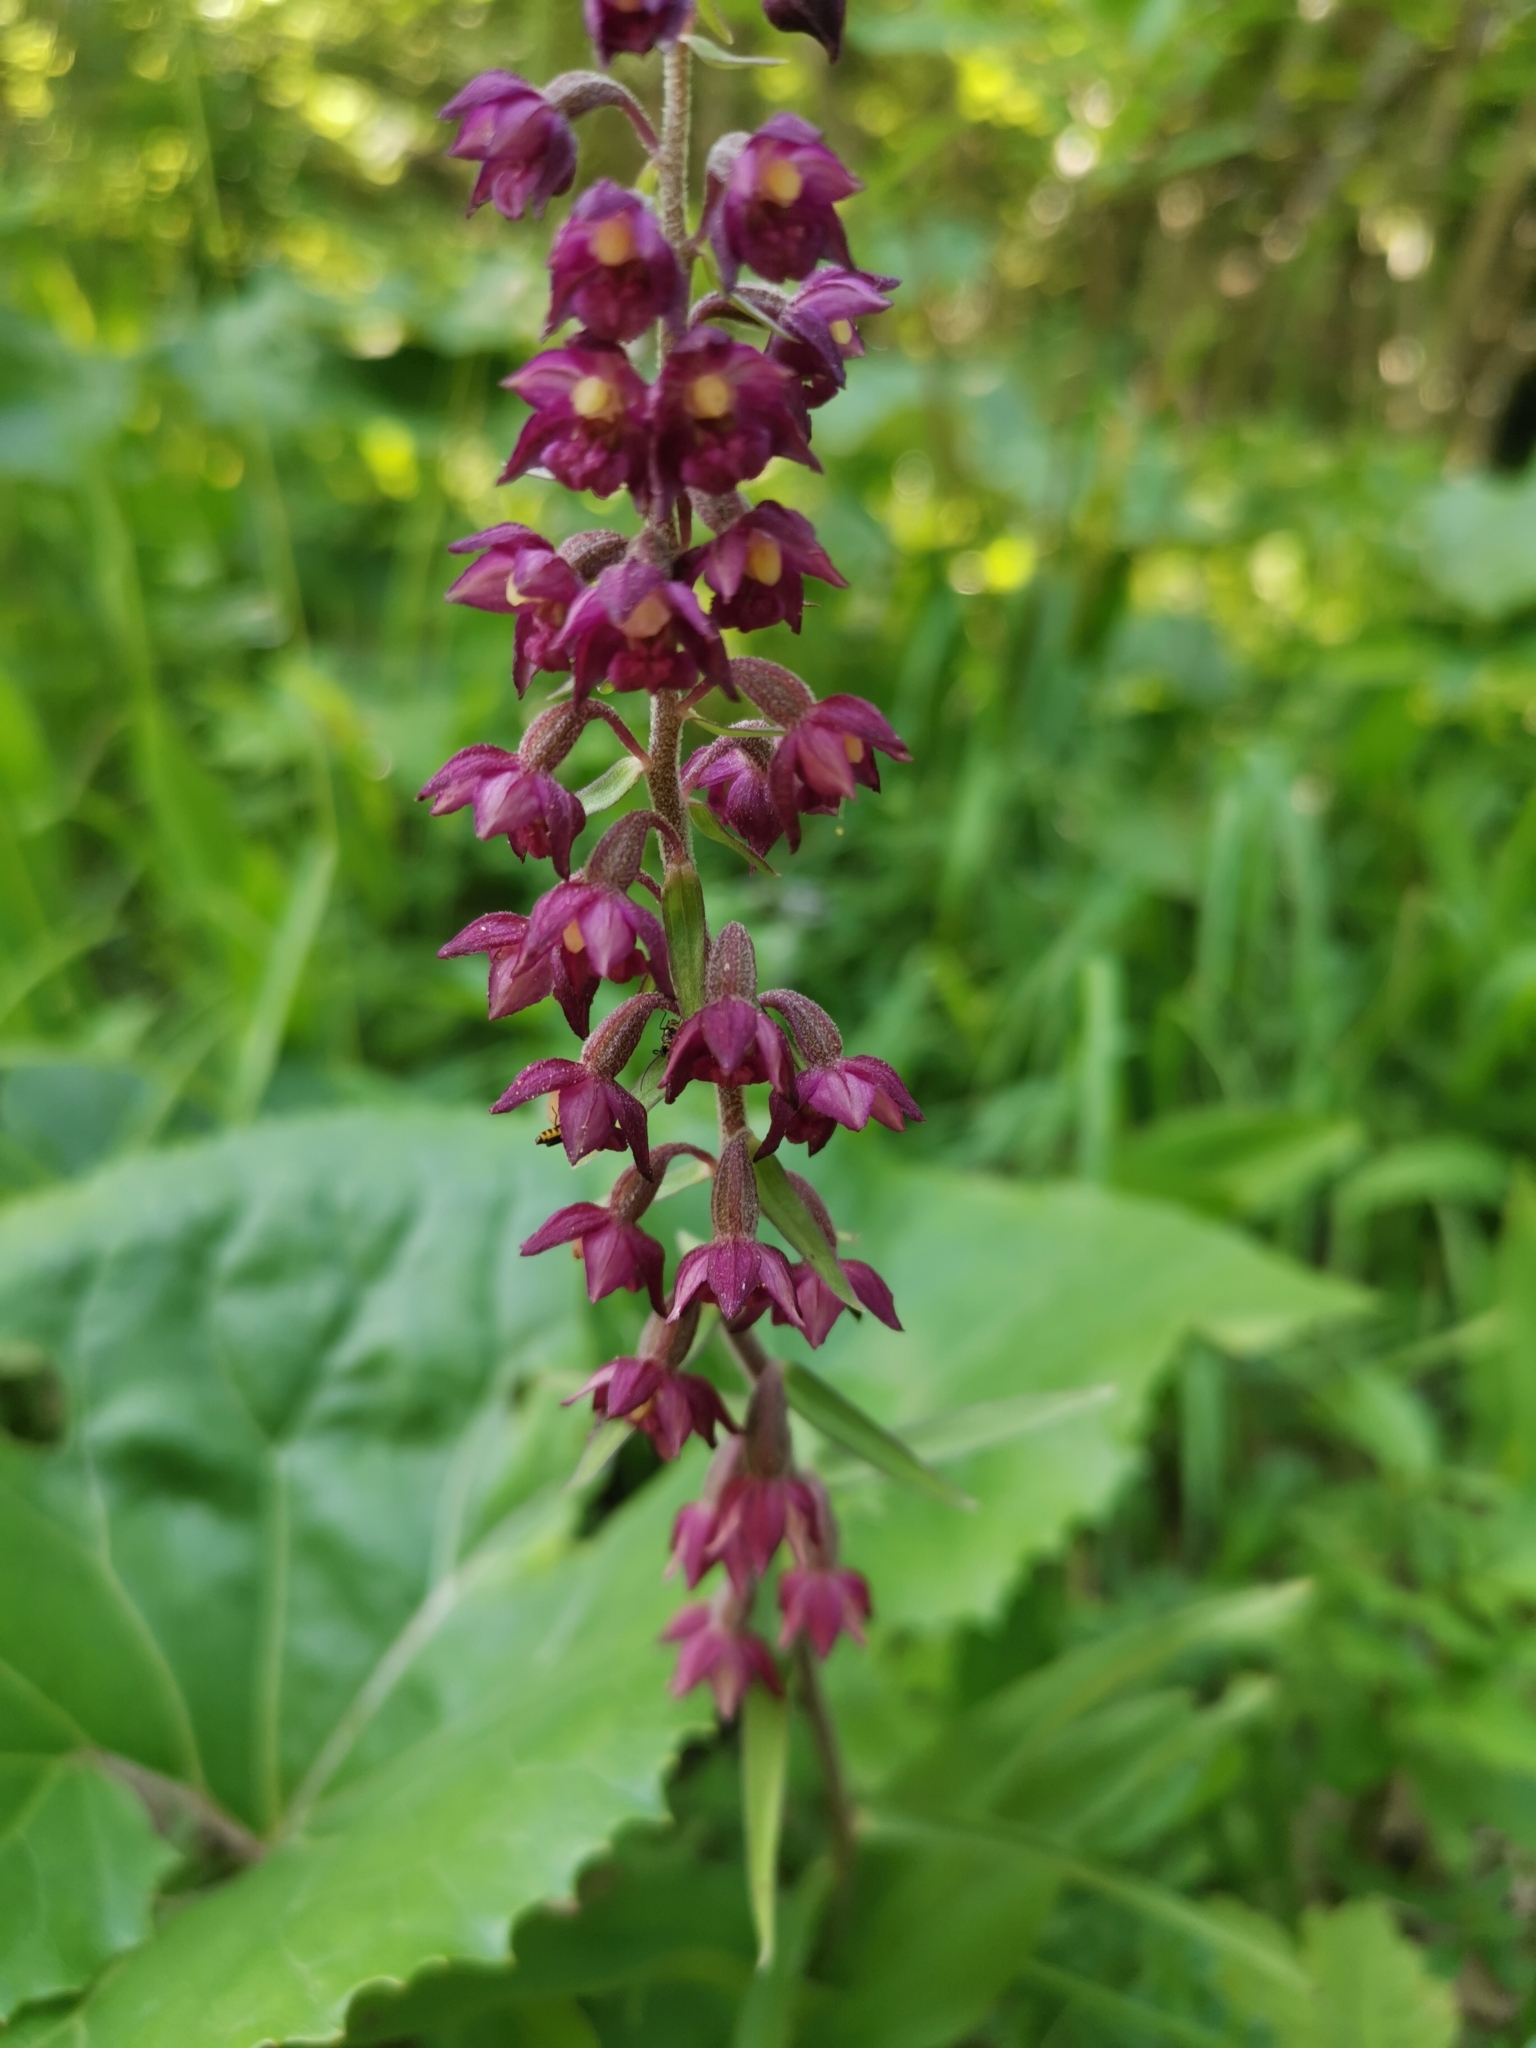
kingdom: Plantae
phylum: Tracheophyta
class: Liliopsida
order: Asparagales
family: Orchidaceae
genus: Epipactis
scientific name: Epipactis atrorubens
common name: Dark-red helleborine
